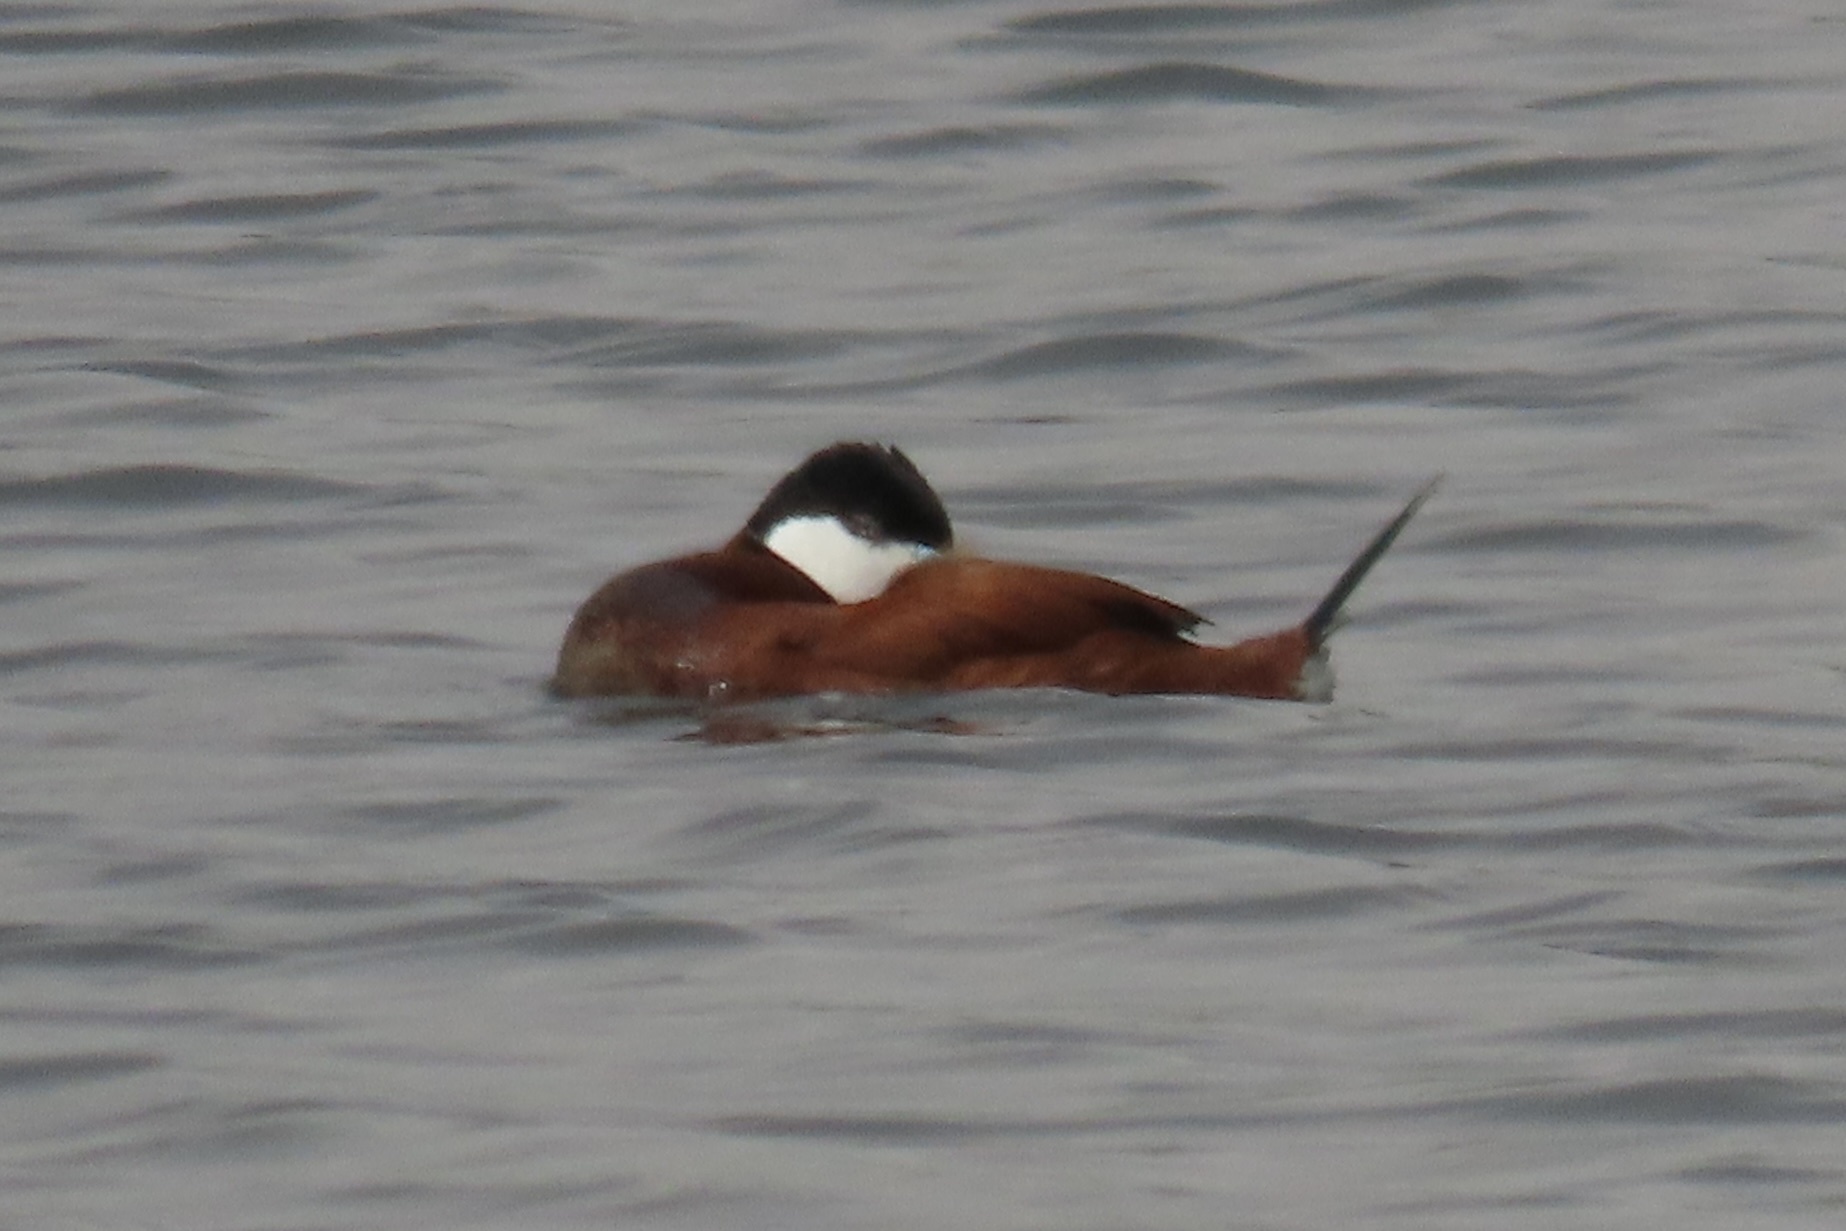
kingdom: Animalia
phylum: Chordata
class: Aves
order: Anseriformes
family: Anatidae
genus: Oxyura
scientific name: Oxyura jamaicensis
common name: Ruddy duck
